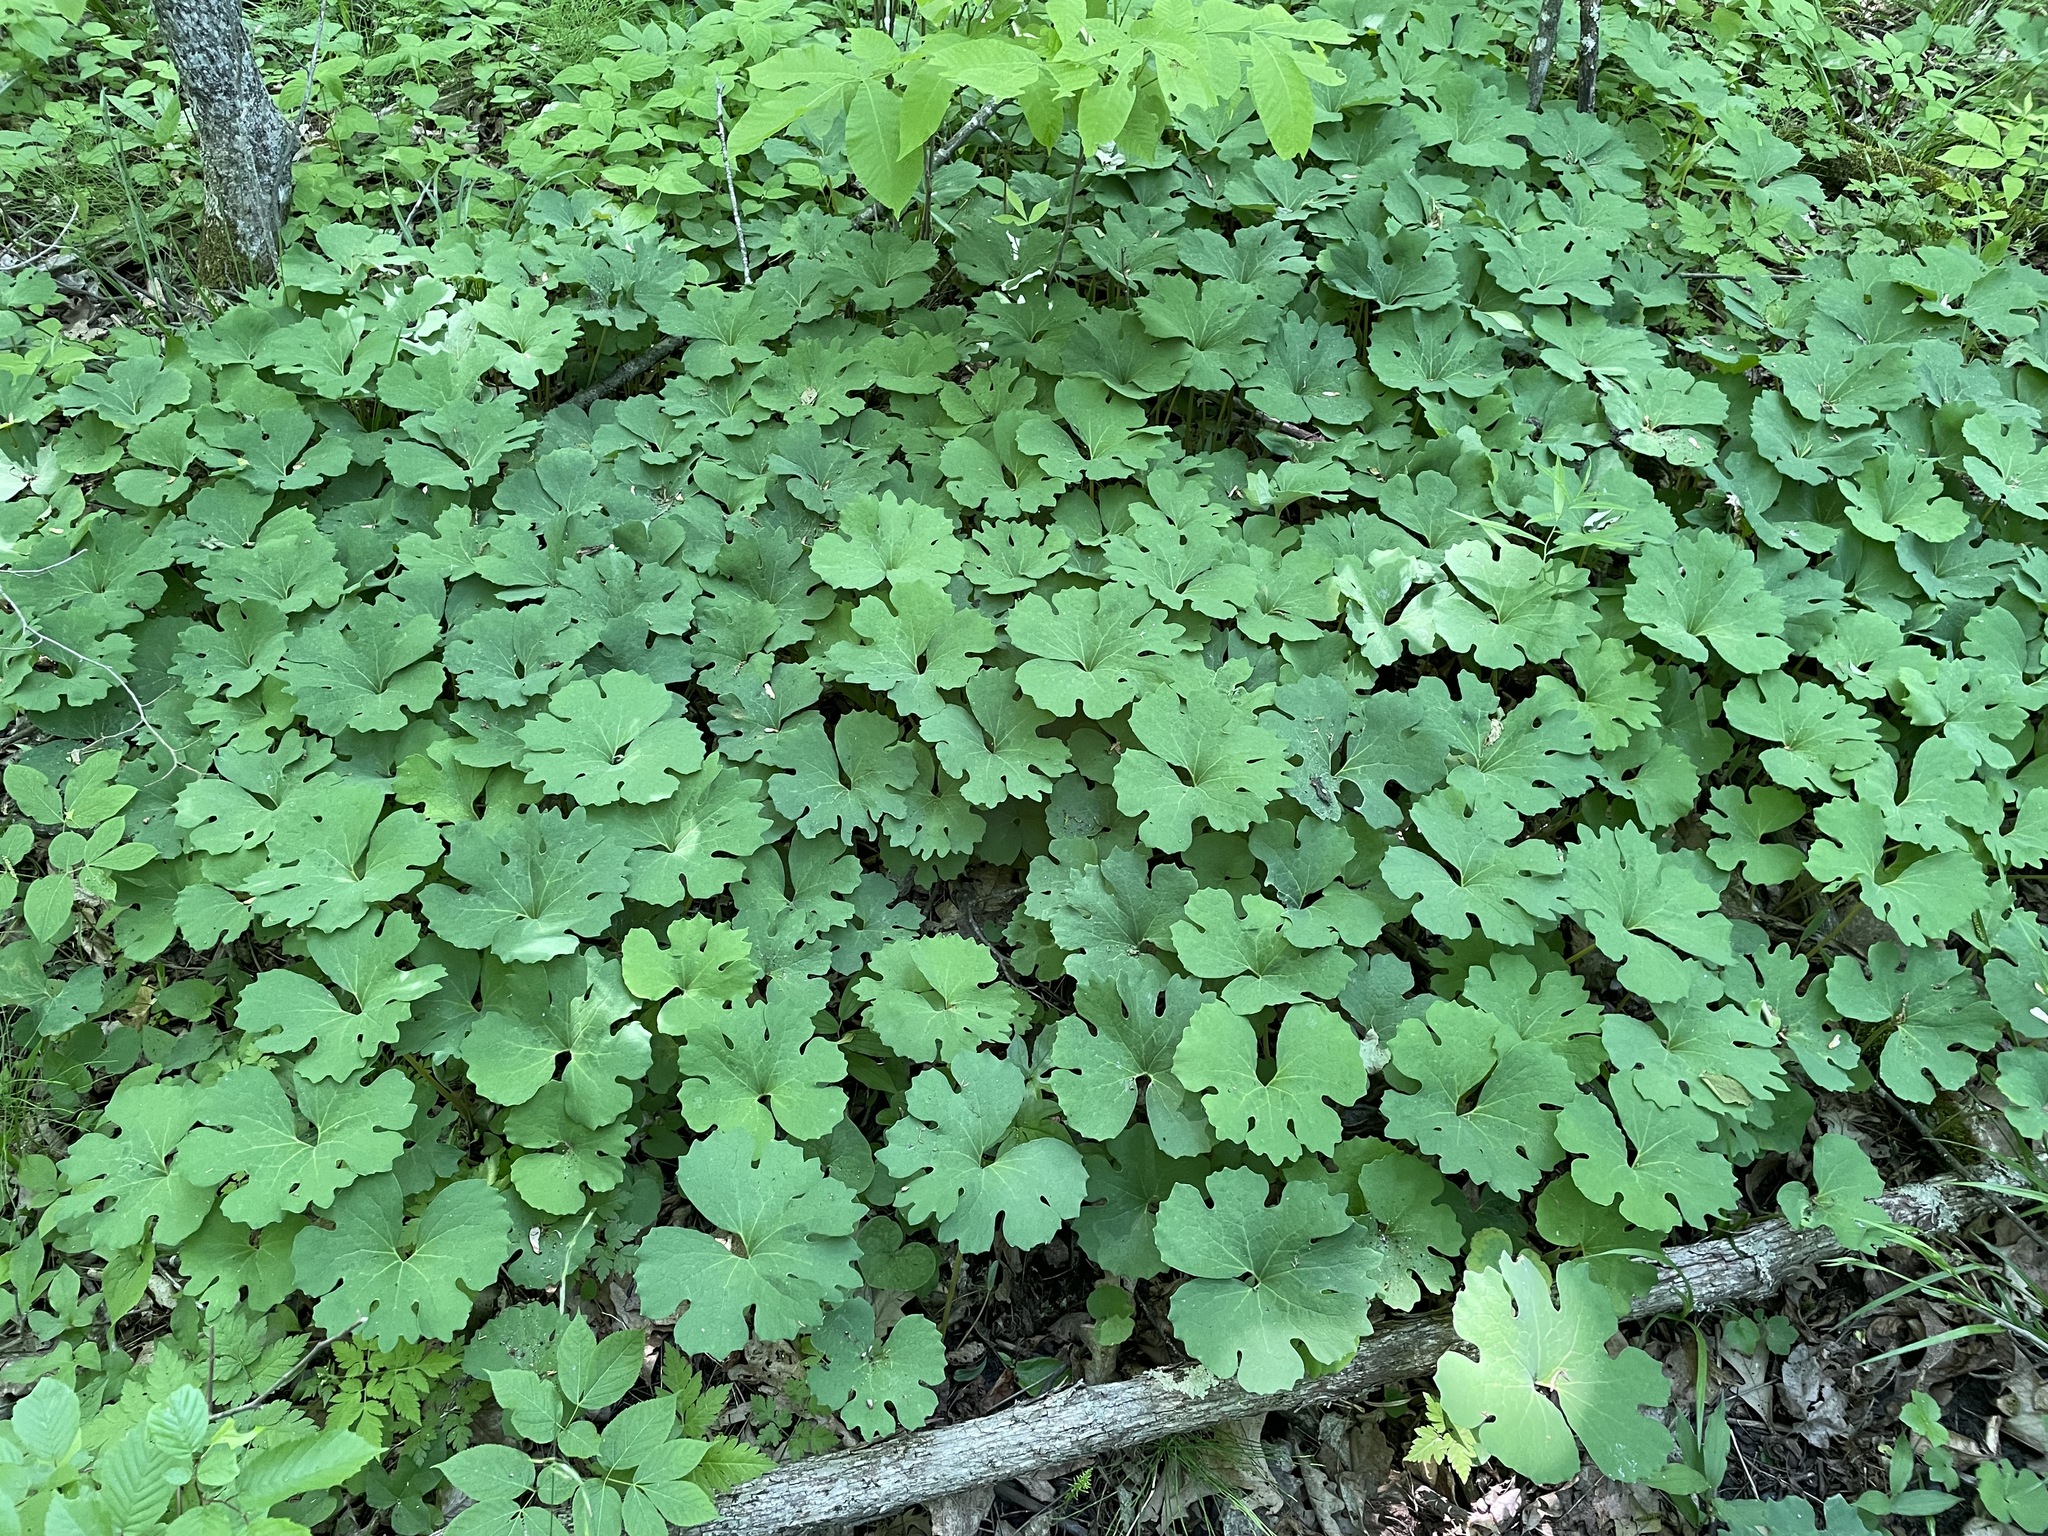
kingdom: Plantae
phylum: Tracheophyta
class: Magnoliopsida
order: Ranunculales
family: Papaveraceae
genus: Sanguinaria
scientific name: Sanguinaria canadensis
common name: Bloodroot
